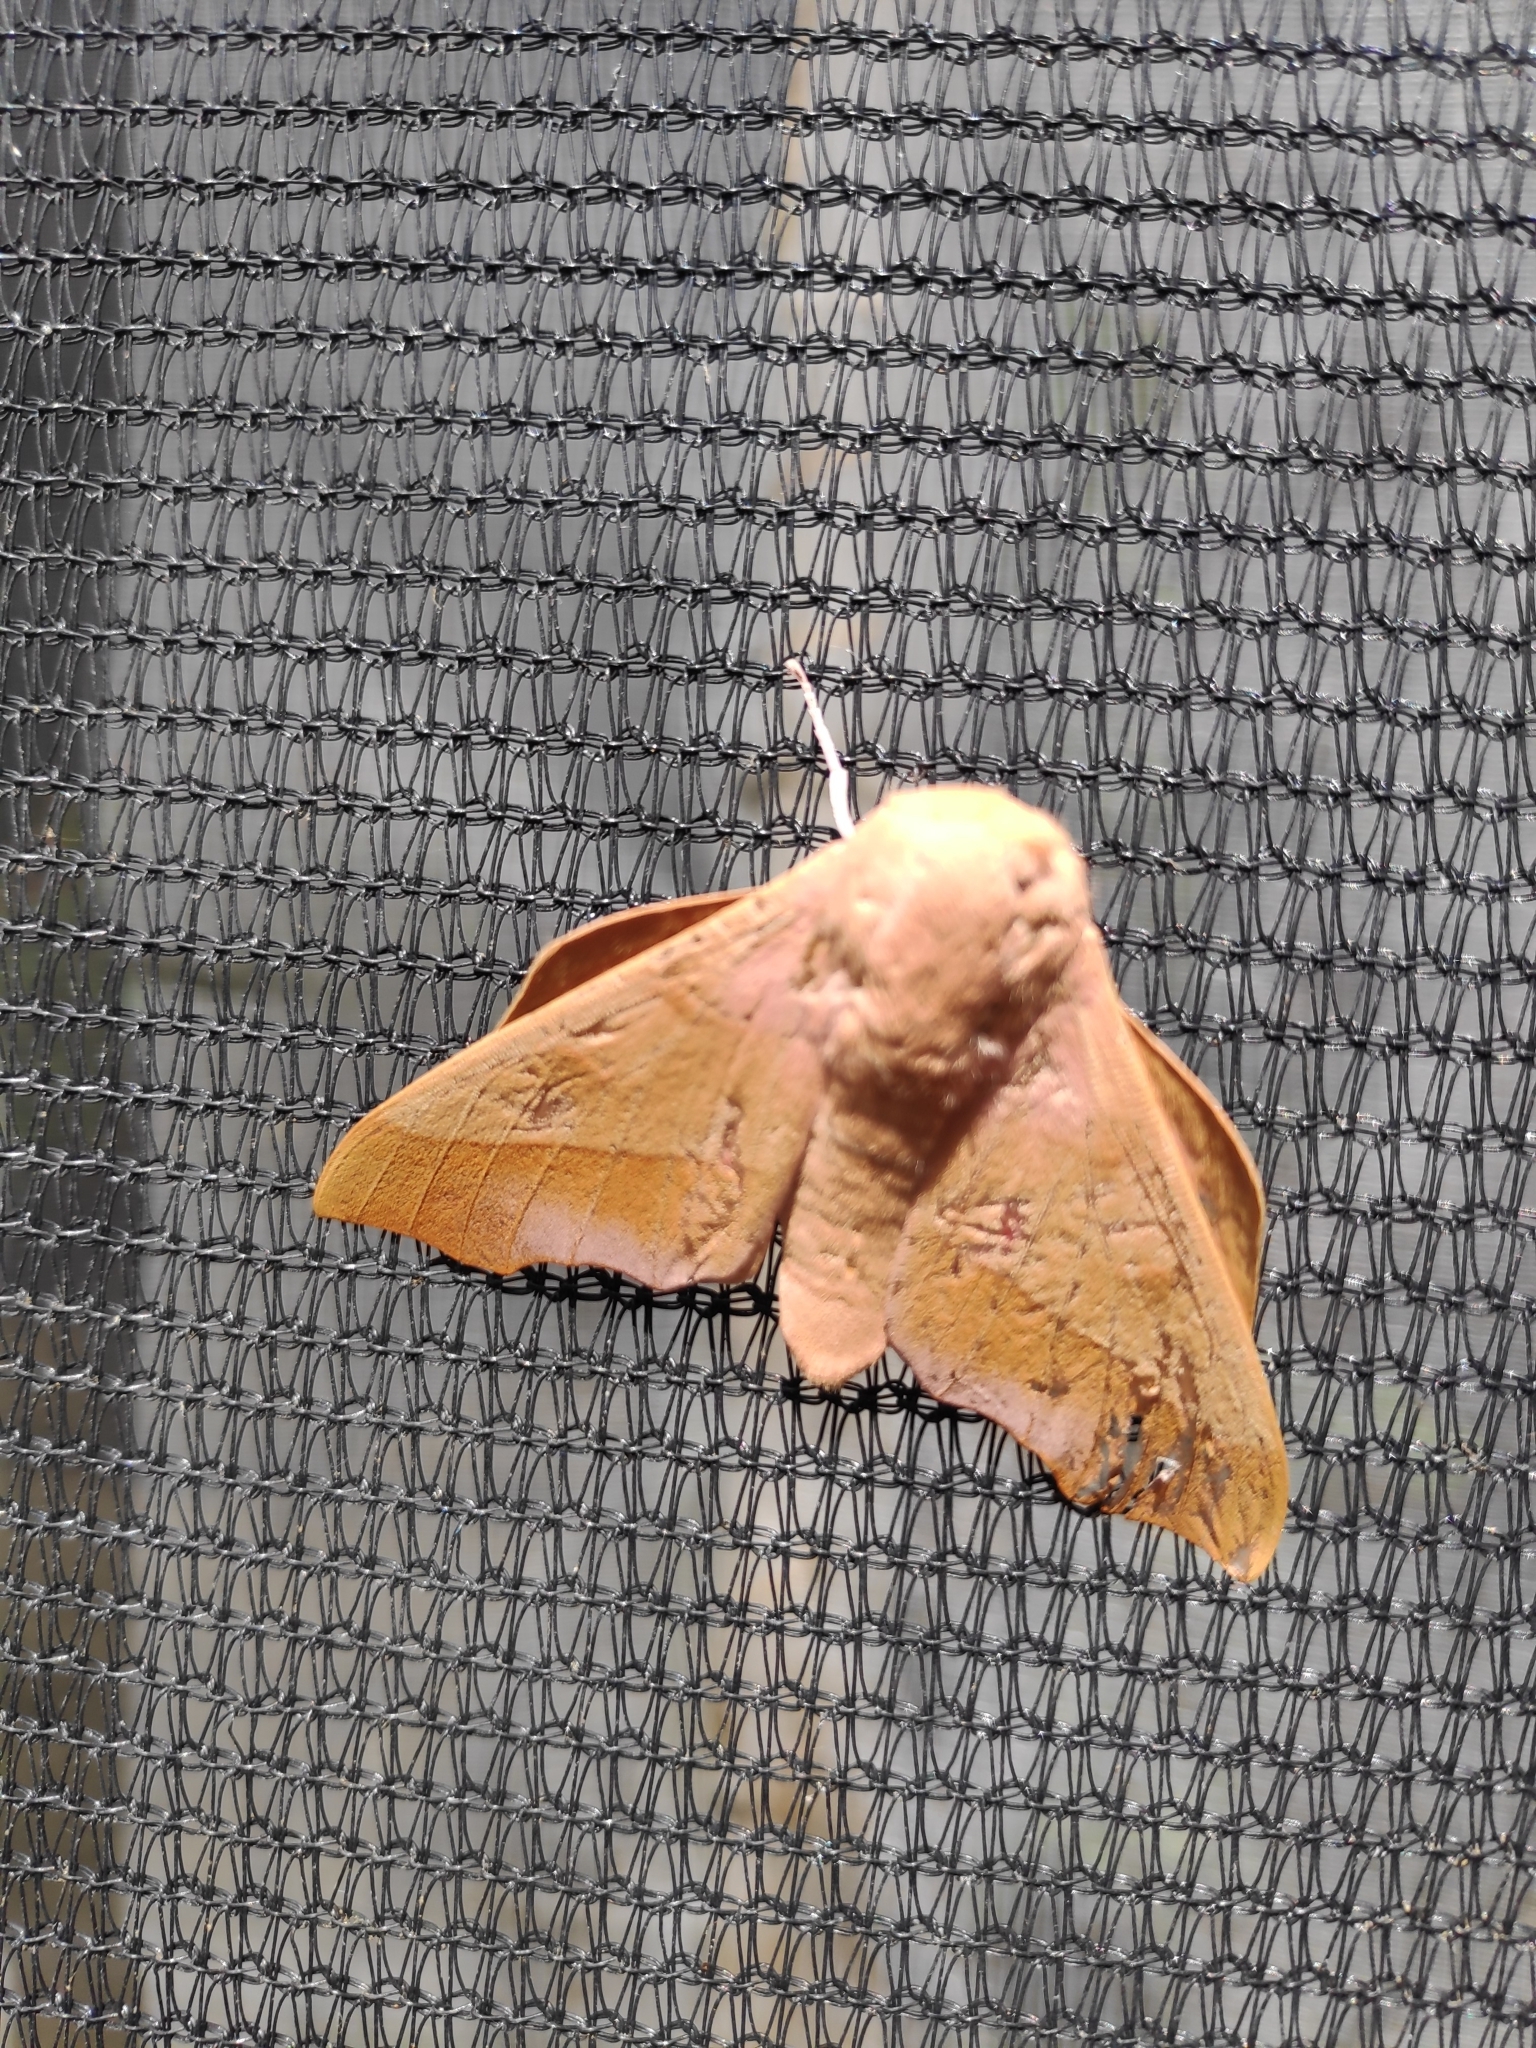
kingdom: Animalia
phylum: Arthropoda
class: Insecta
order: Lepidoptera
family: Saturniidae
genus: Syssphinx
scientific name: Syssphinx molina
